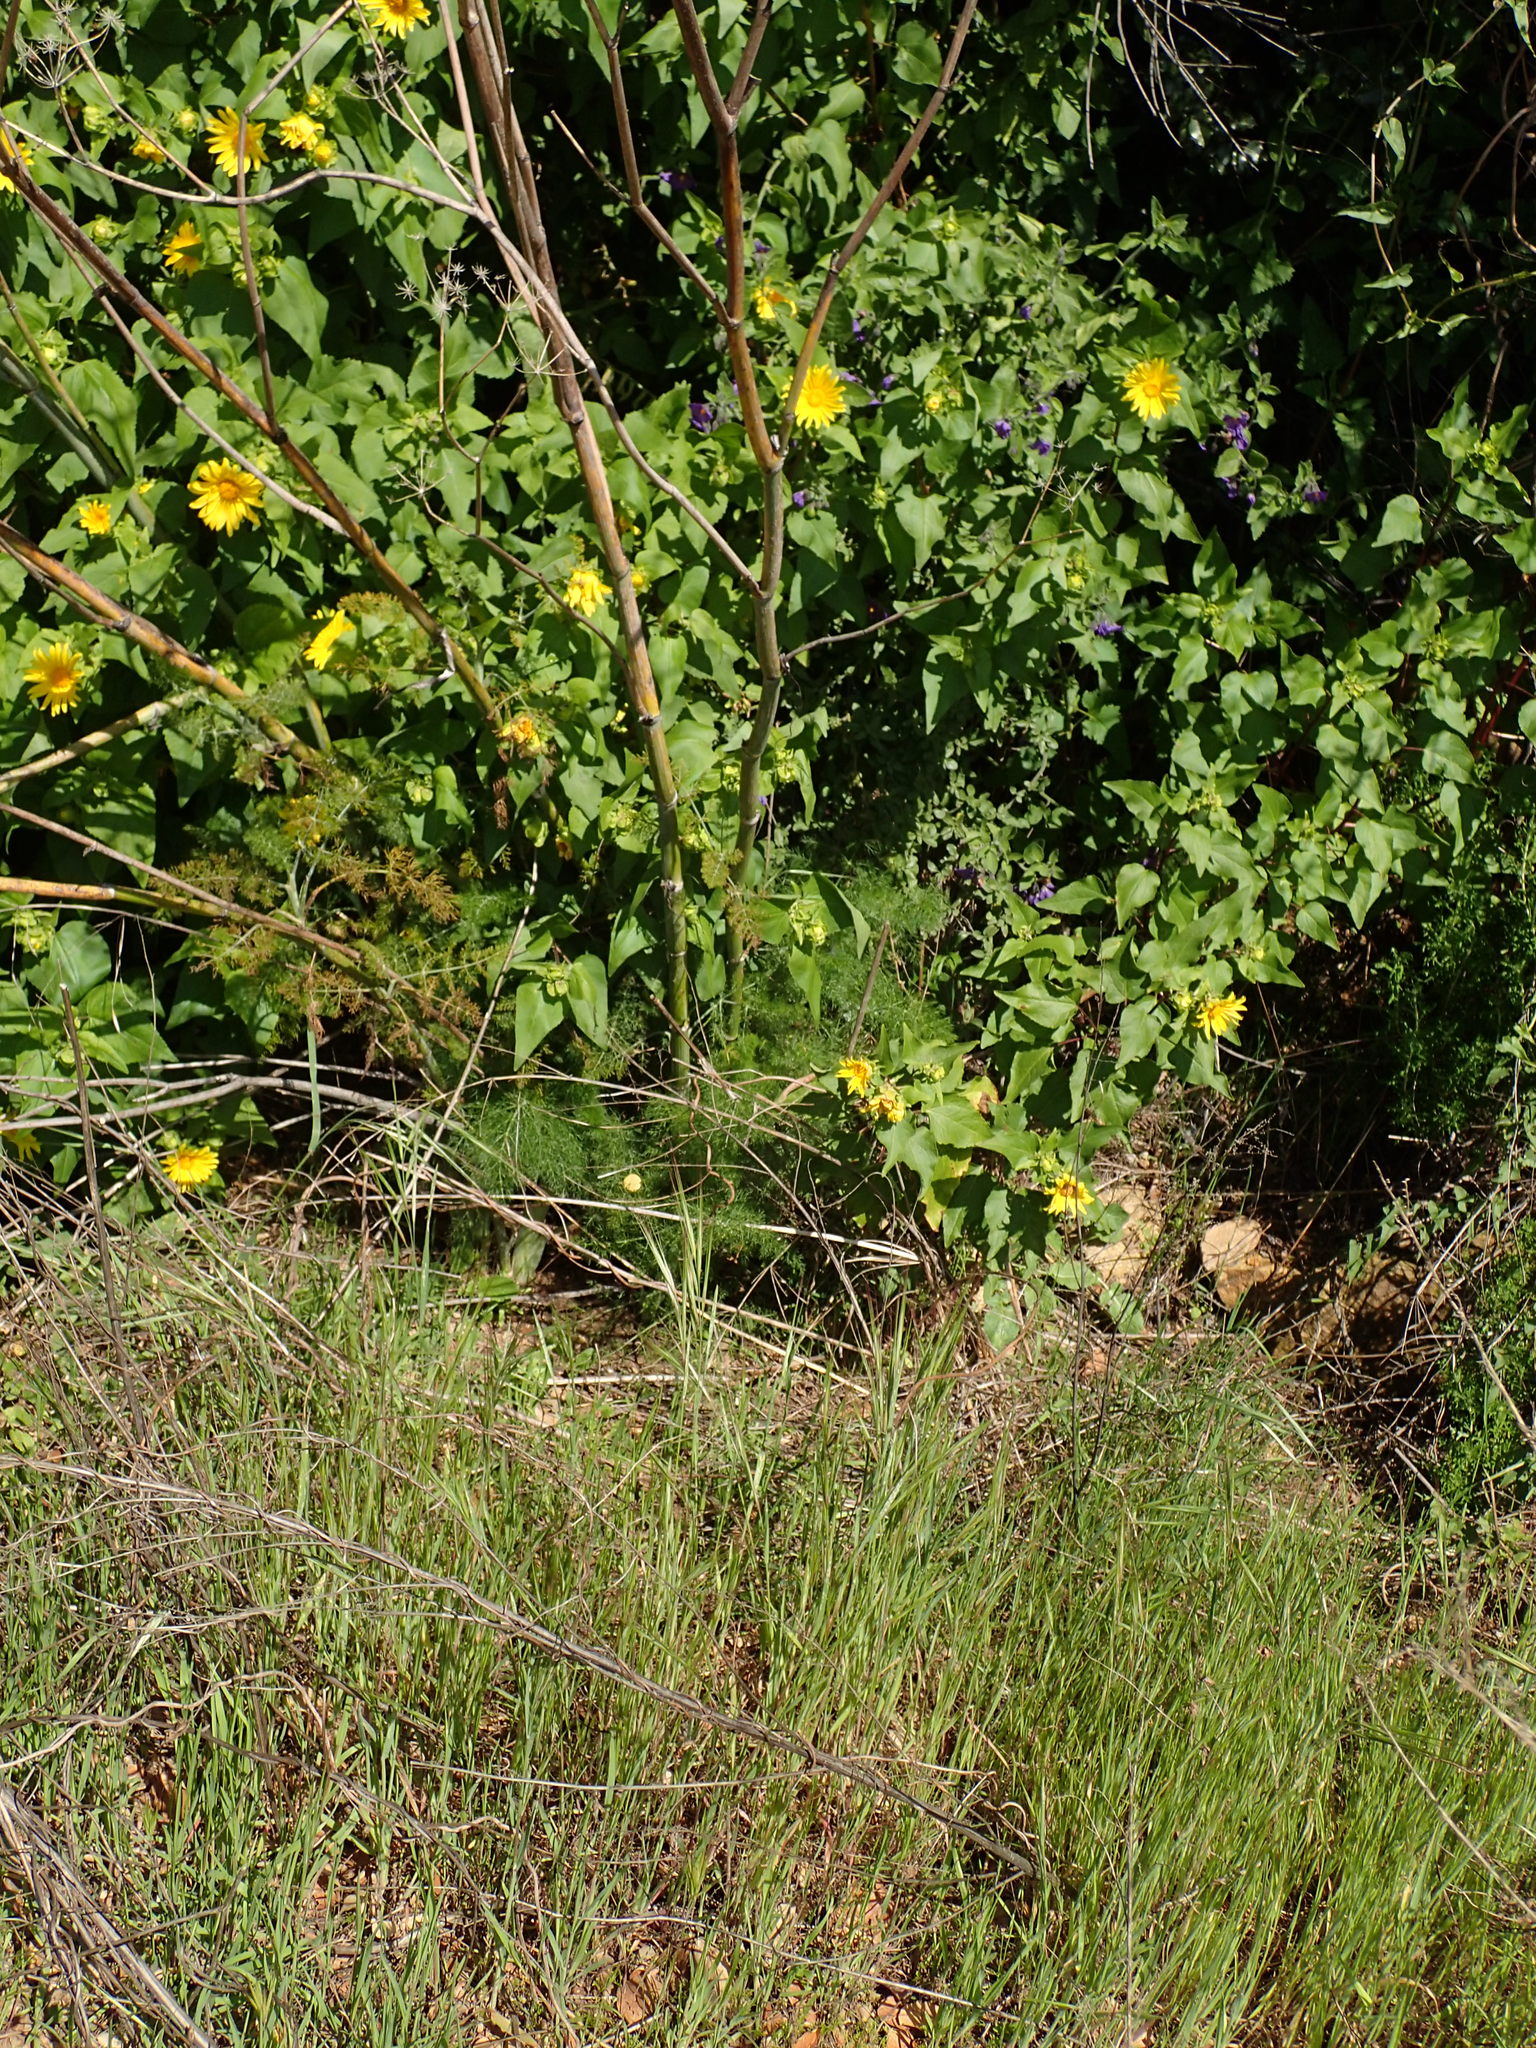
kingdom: Plantae
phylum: Tracheophyta
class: Magnoliopsida
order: Apiales
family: Apiaceae
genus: Foeniculum
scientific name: Foeniculum vulgare
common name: Fennel
